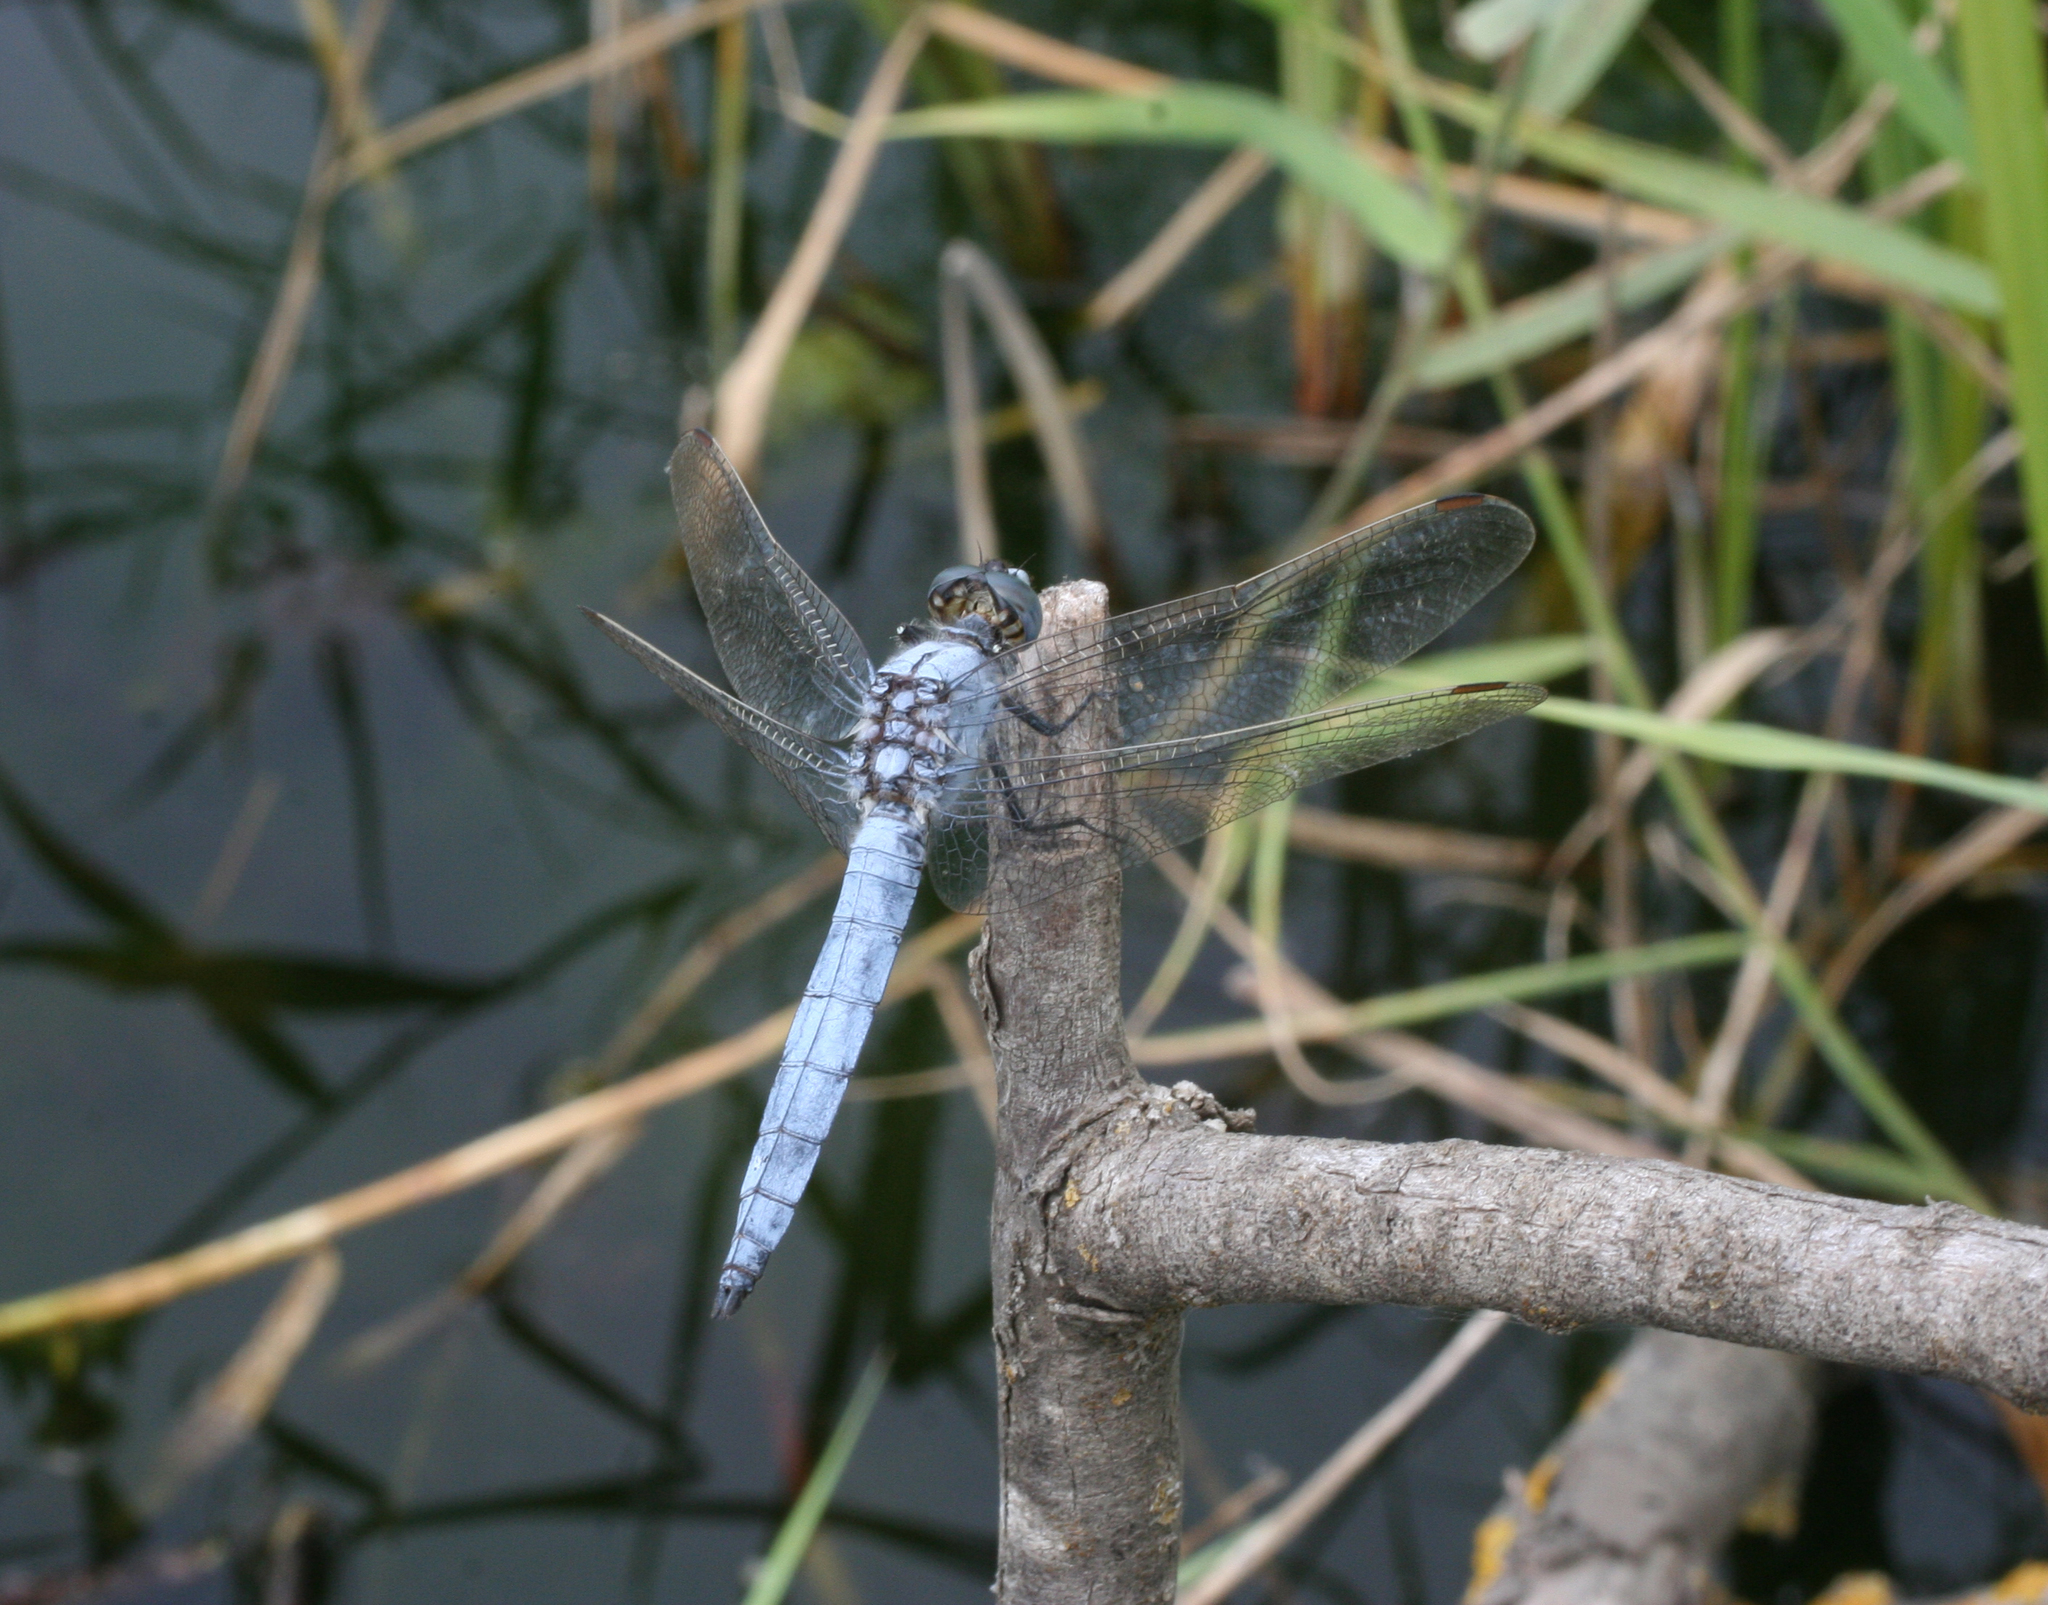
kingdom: Animalia
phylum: Arthropoda
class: Insecta
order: Odonata
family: Libellulidae
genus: Orthetrum
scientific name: Orthetrum brunneum
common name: Southern skimmer
